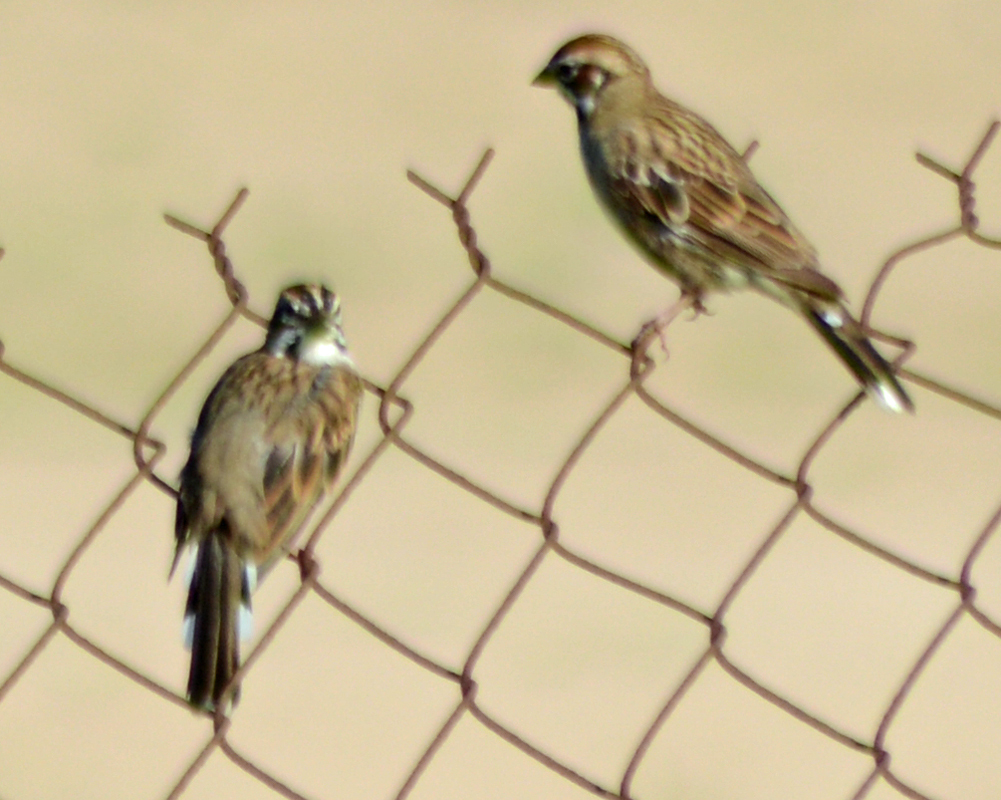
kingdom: Animalia
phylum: Chordata
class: Aves
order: Passeriformes
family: Passerellidae
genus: Chondestes
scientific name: Chondestes grammacus
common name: Lark sparrow
